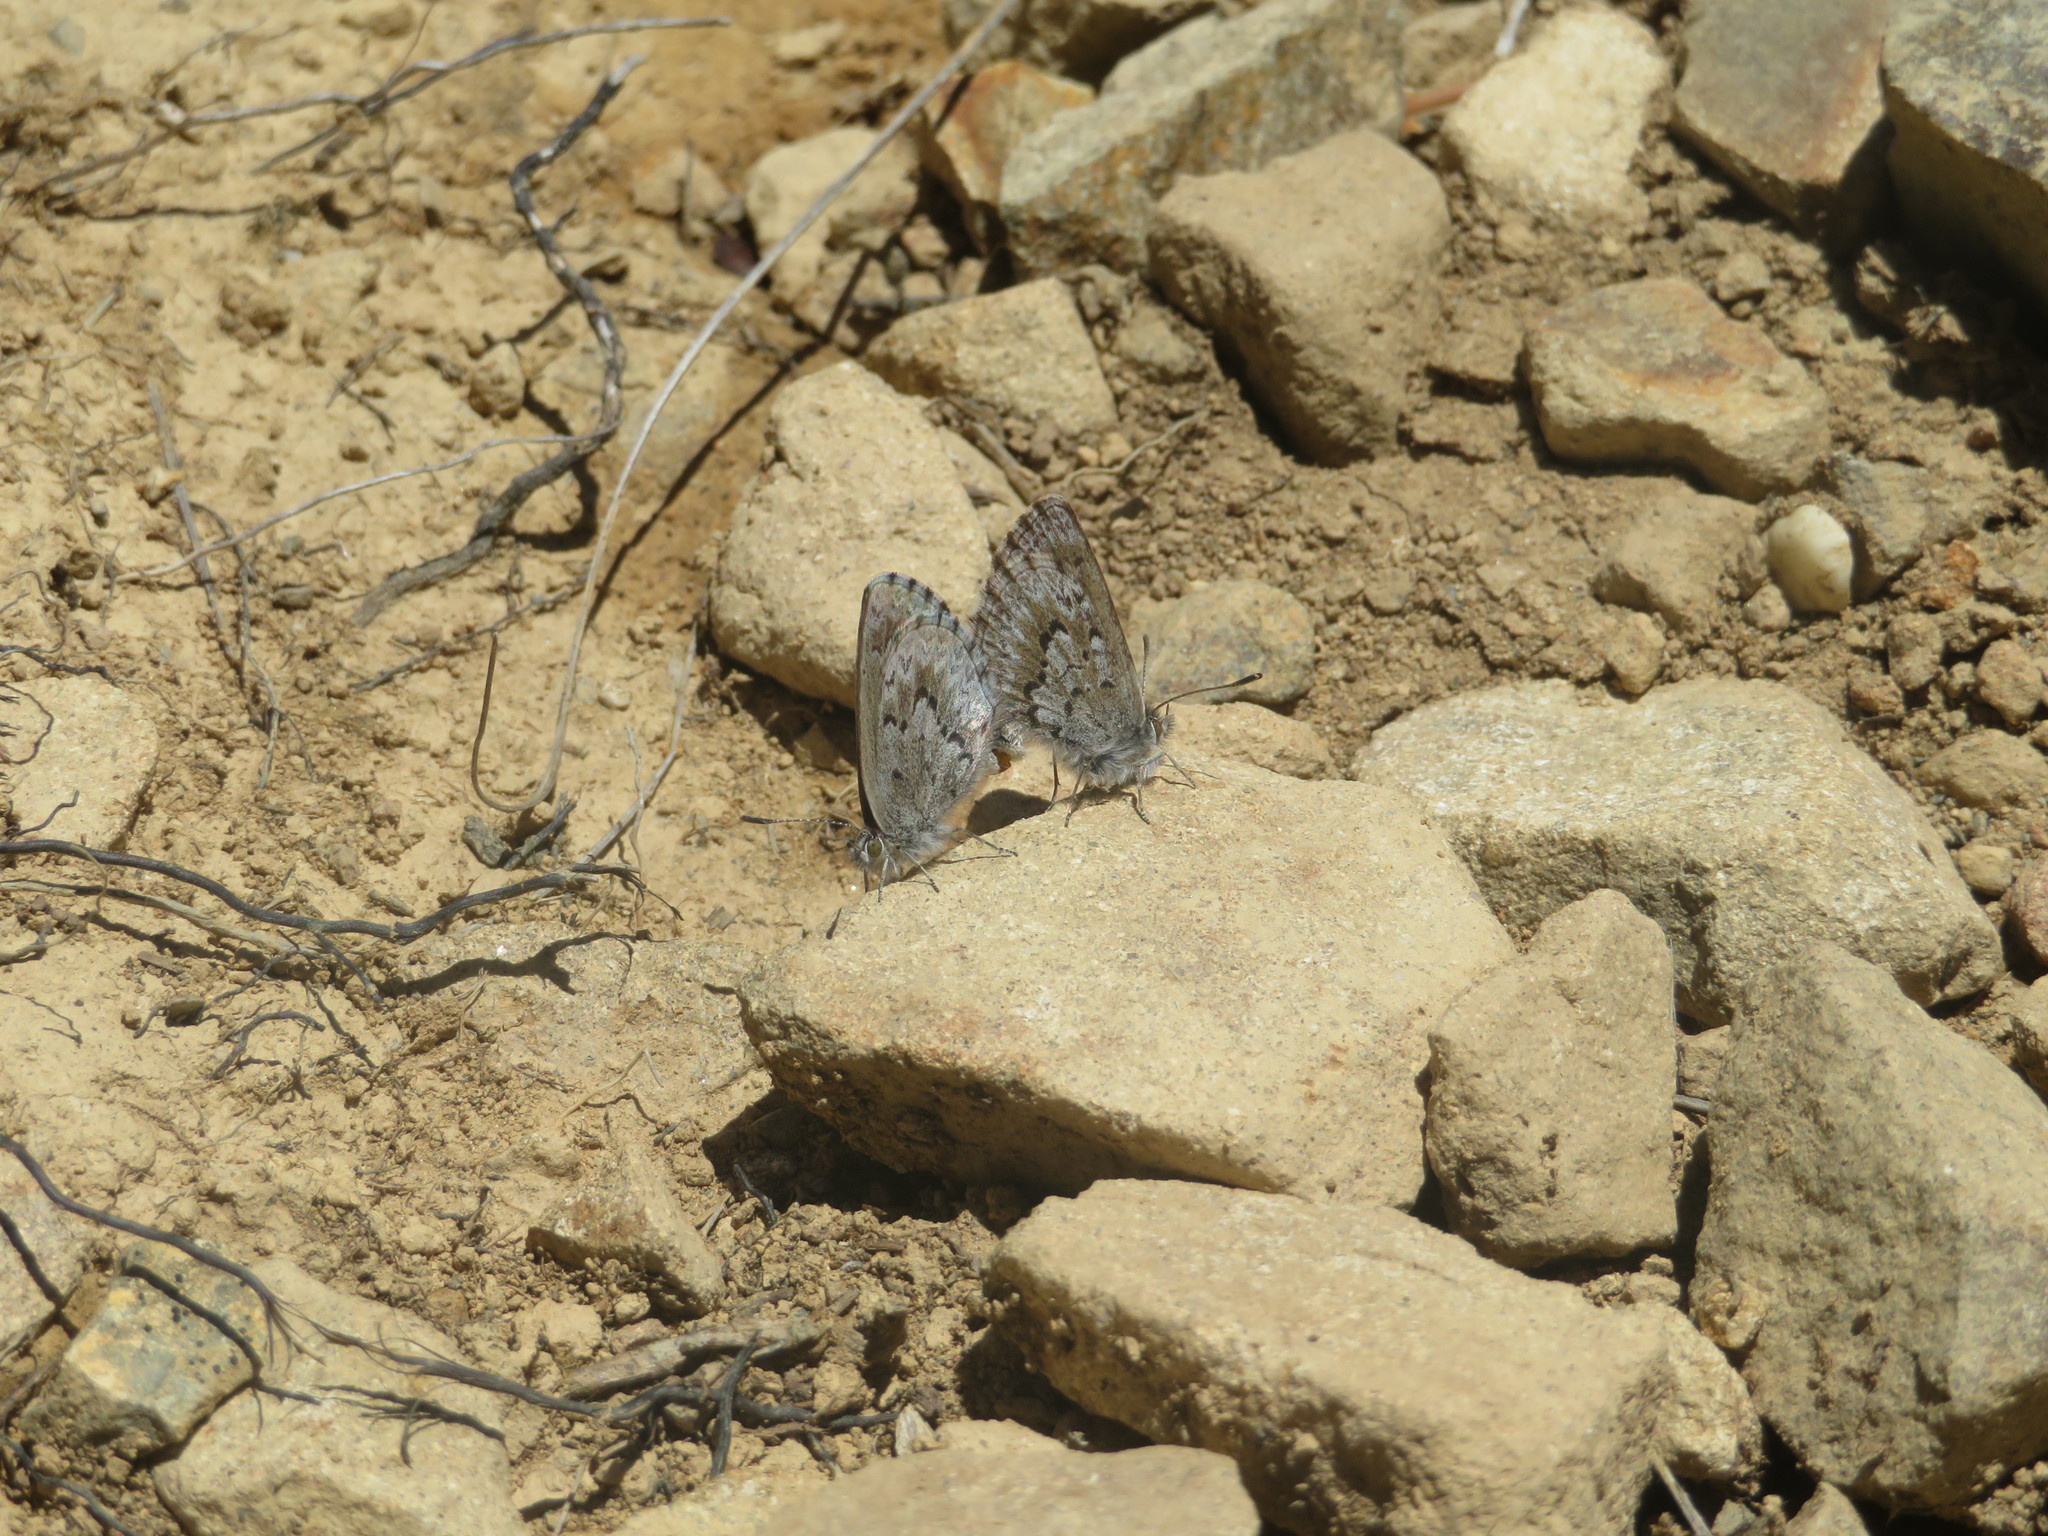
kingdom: Animalia
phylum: Arthropoda
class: Insecta
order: Lepidoptera
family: Lycaenidae
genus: Zizina
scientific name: Zizina oxleyi
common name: Southern blue
